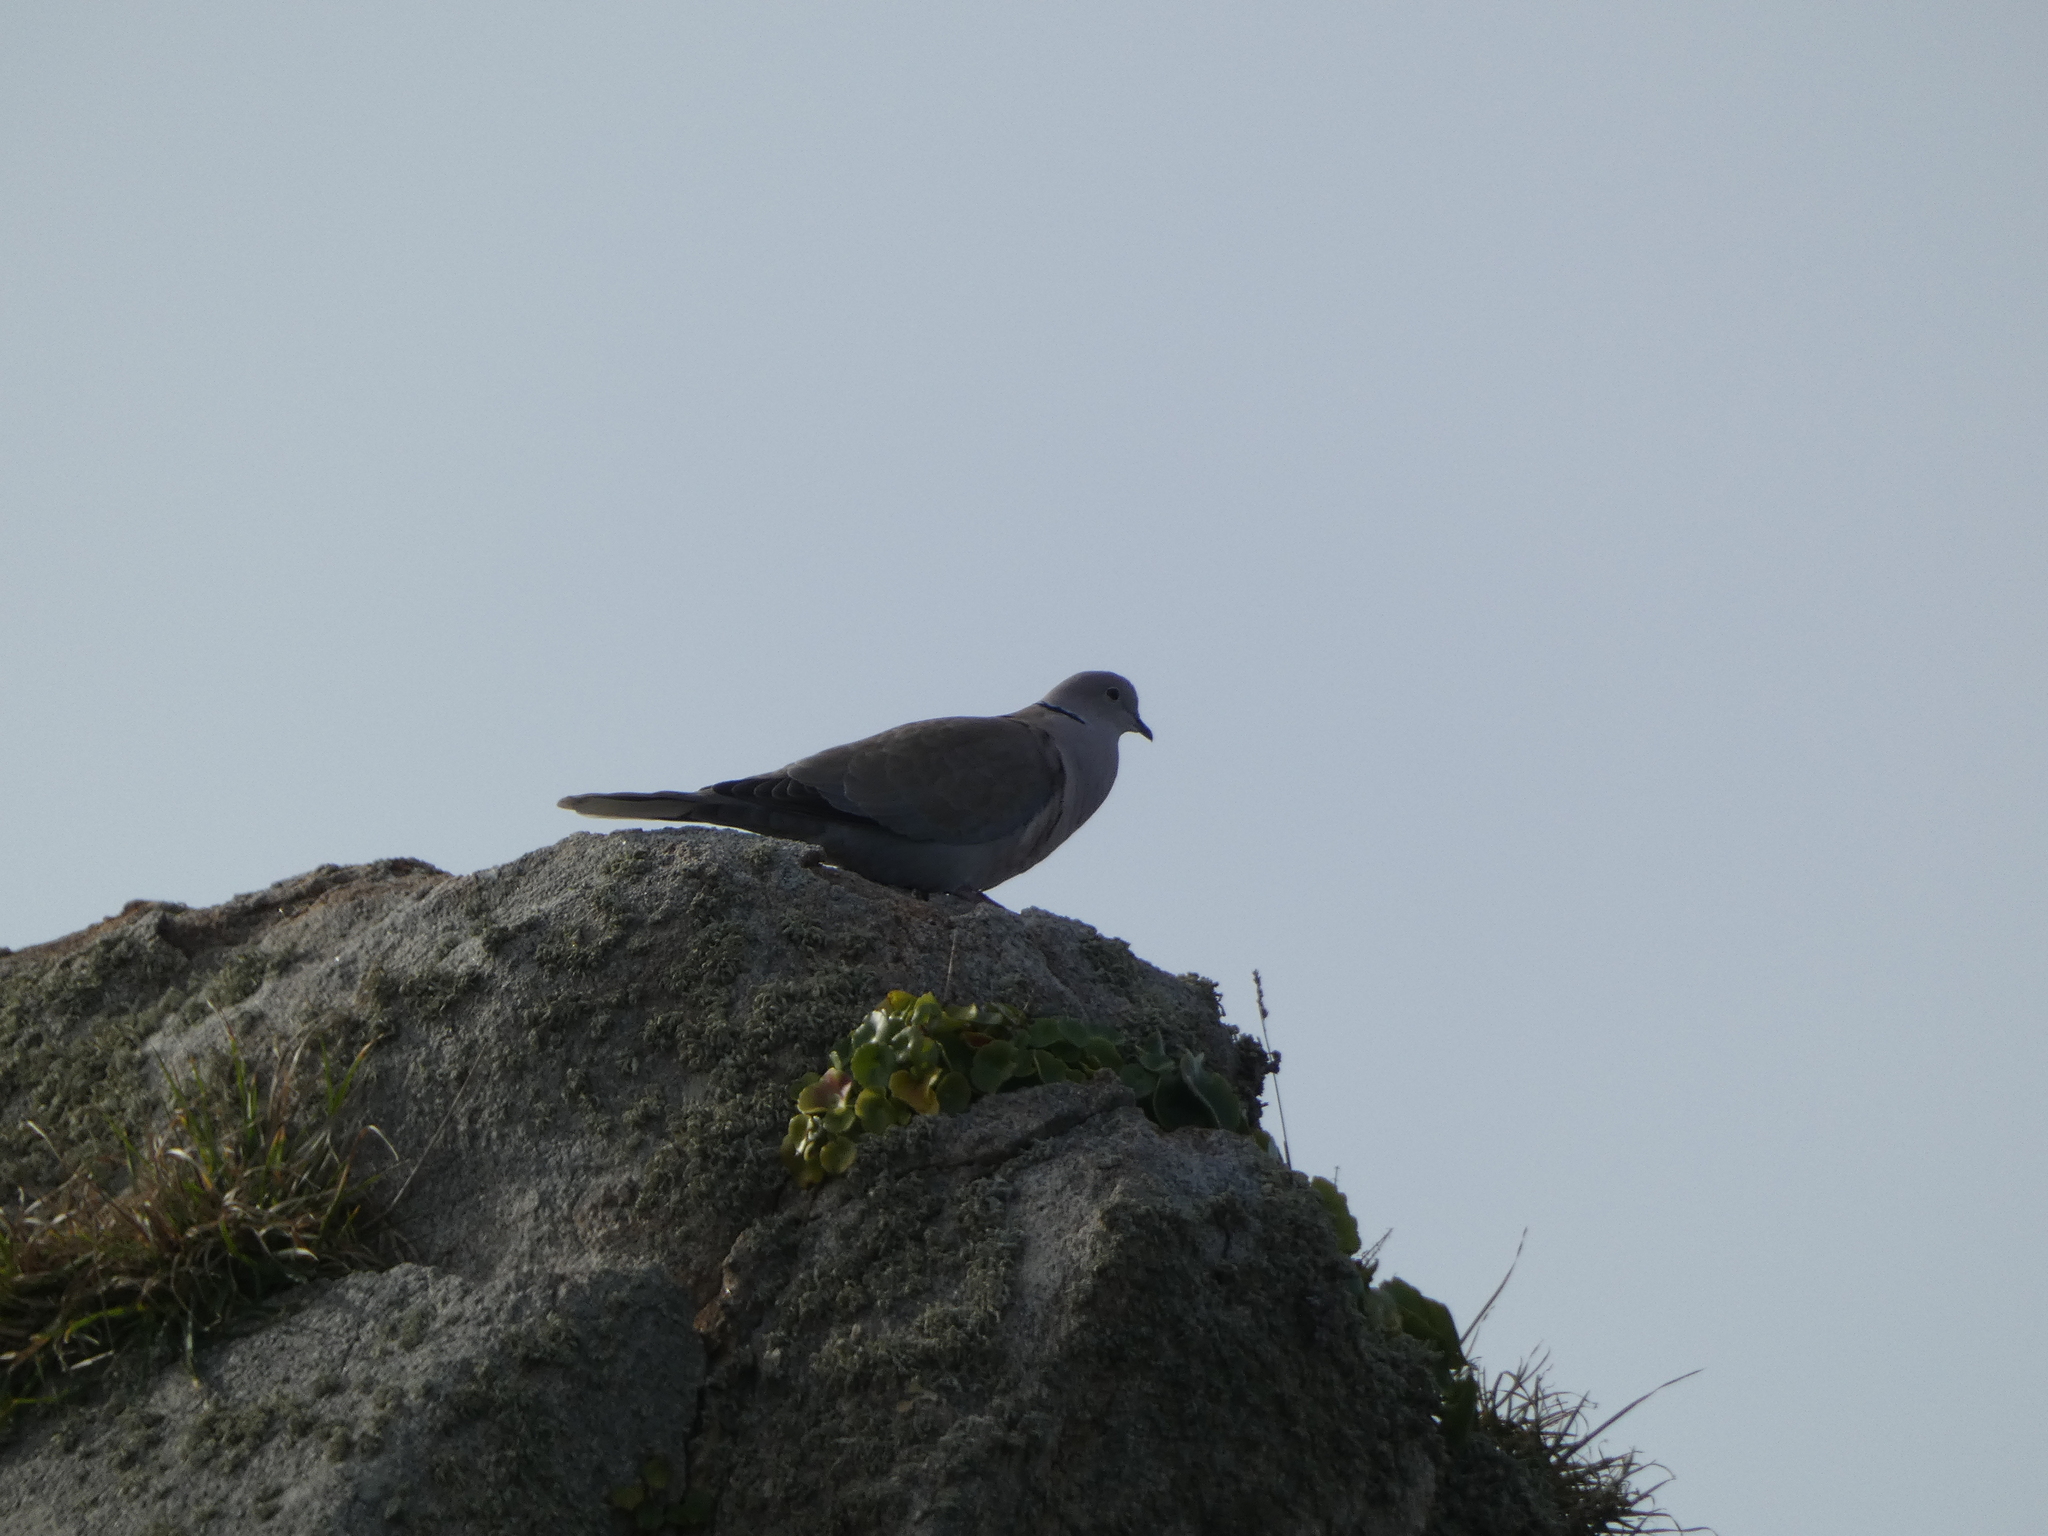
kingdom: Animalia
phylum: Chordata
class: Aves
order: Columbiformes
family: Columbidae
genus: Streptopelia
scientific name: Streptopelia decaocto
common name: Eurasian collared dove
